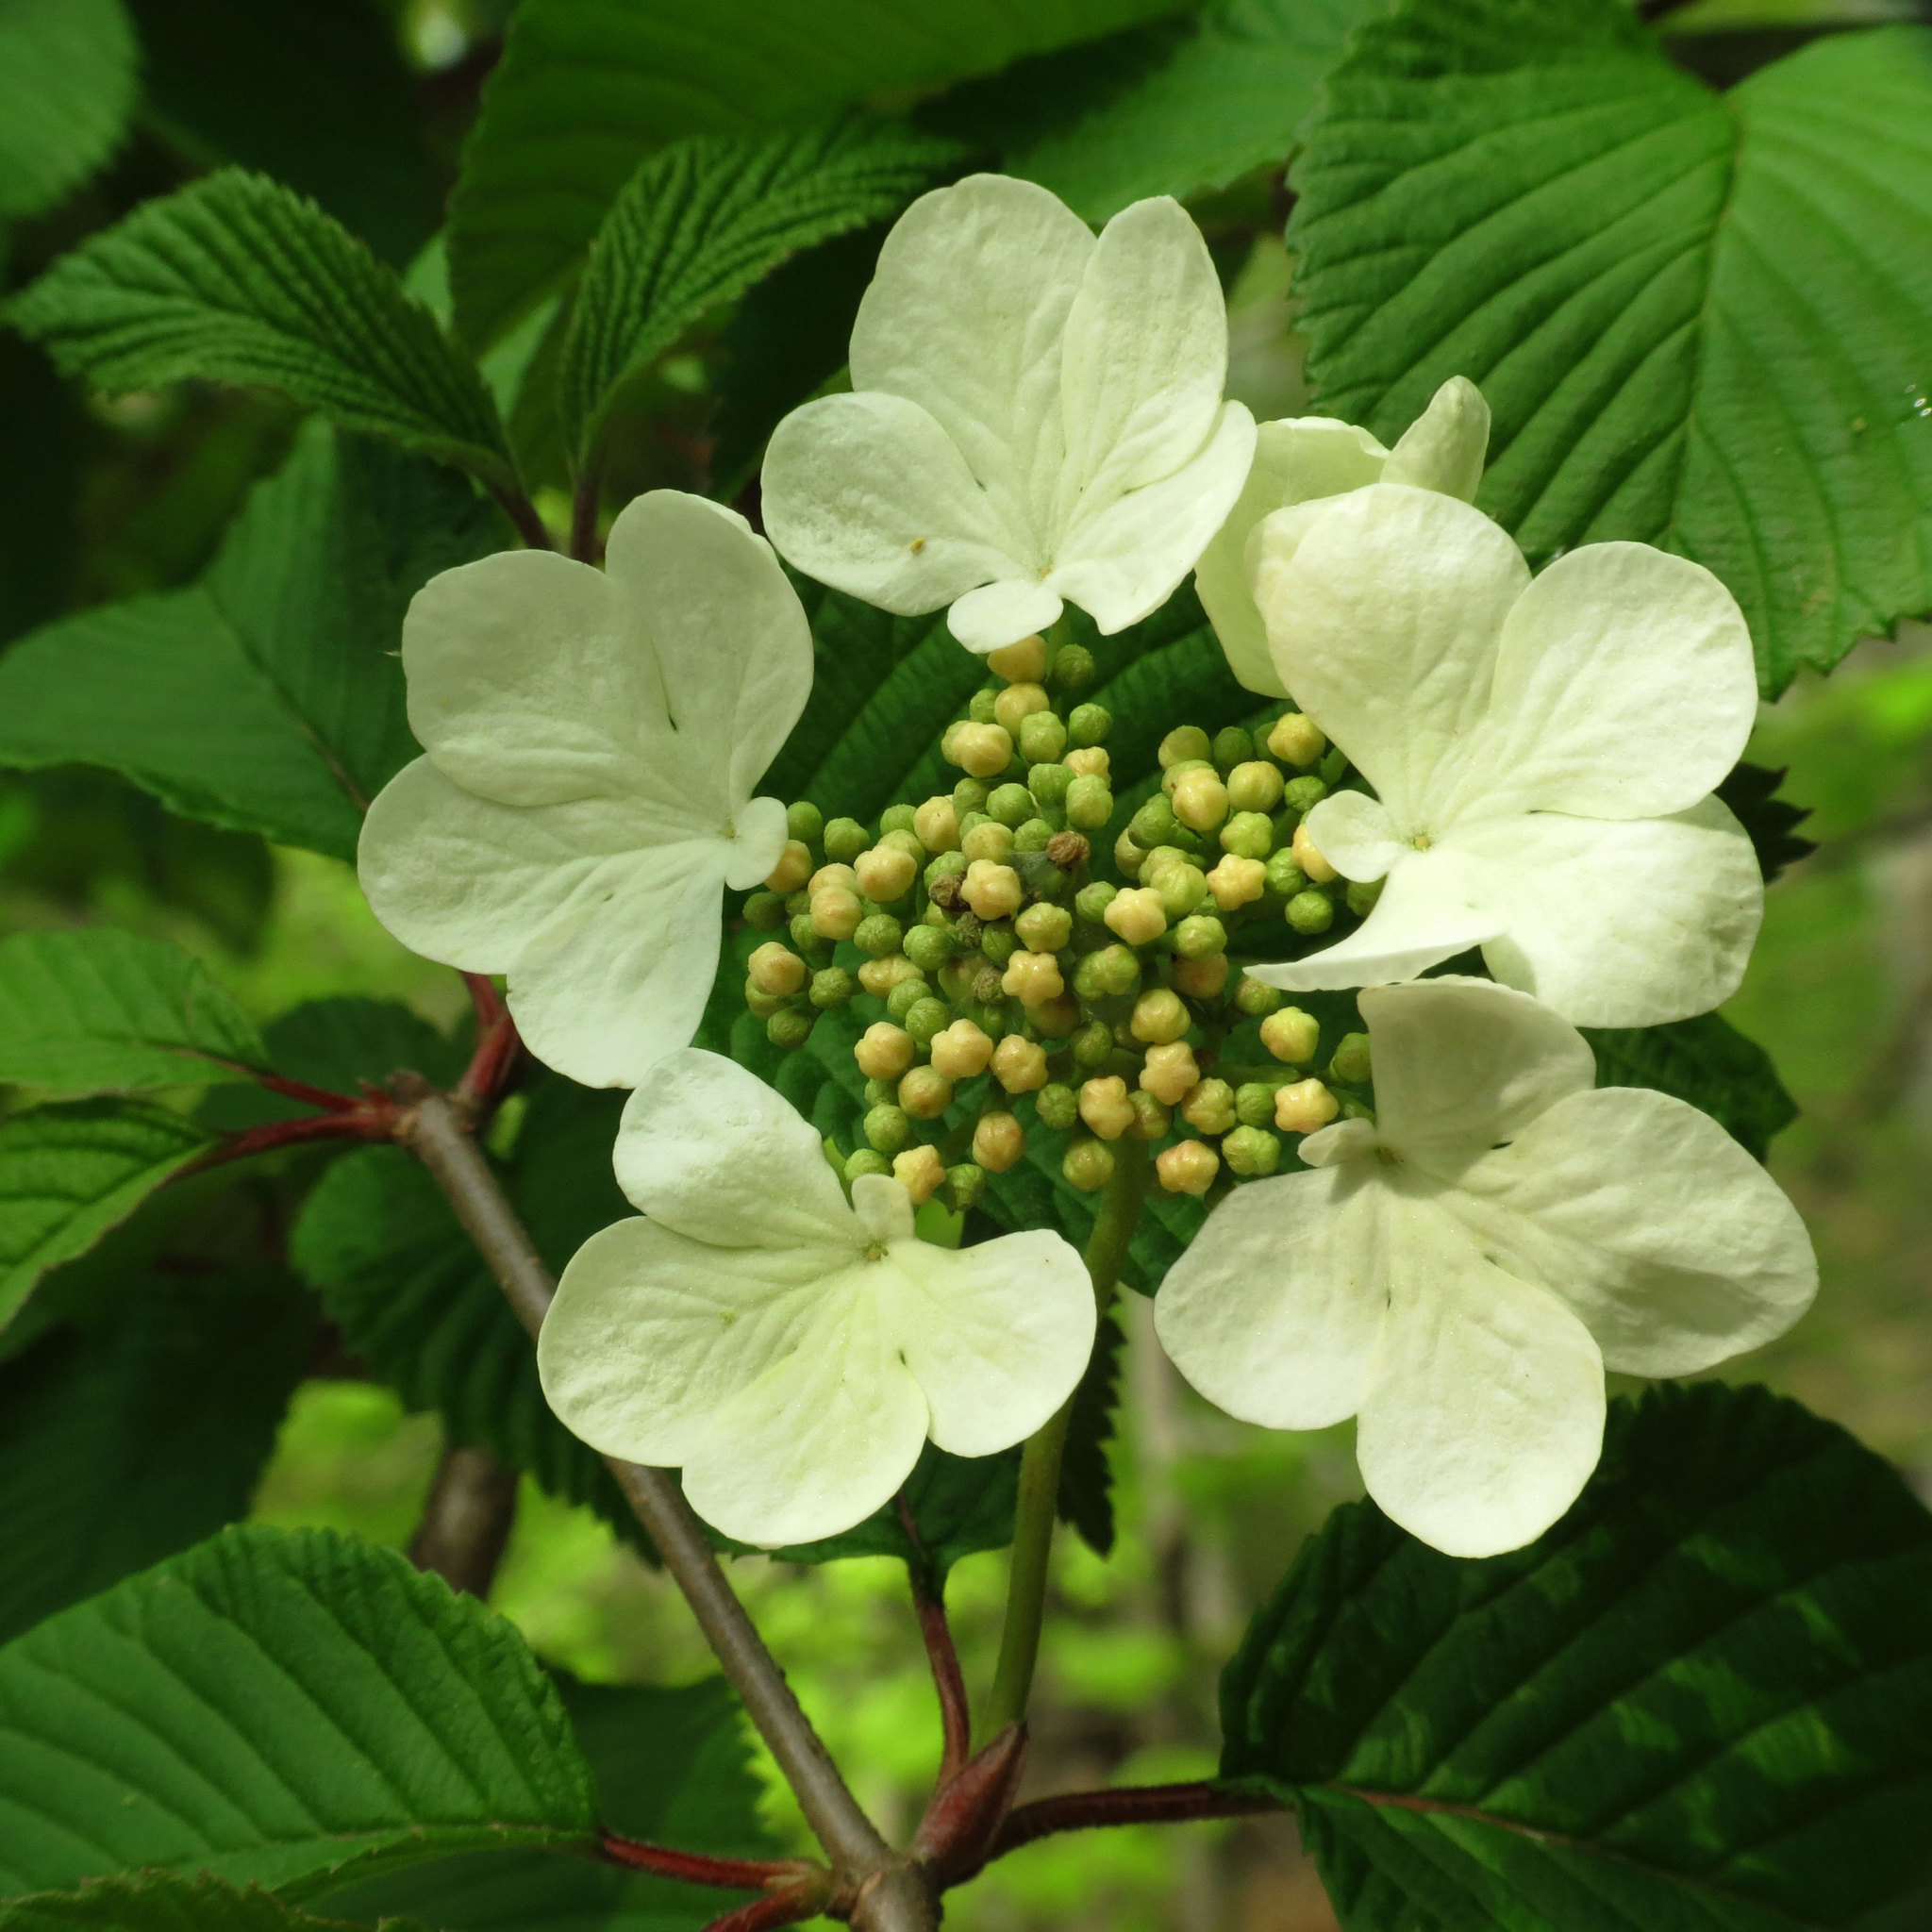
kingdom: Plantae
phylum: Tracheophyta
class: Magnoliopsida
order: Dipsacales
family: Viburnaceae
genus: Viburnum
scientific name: Viburnum plicatum
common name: Japanese snowball
